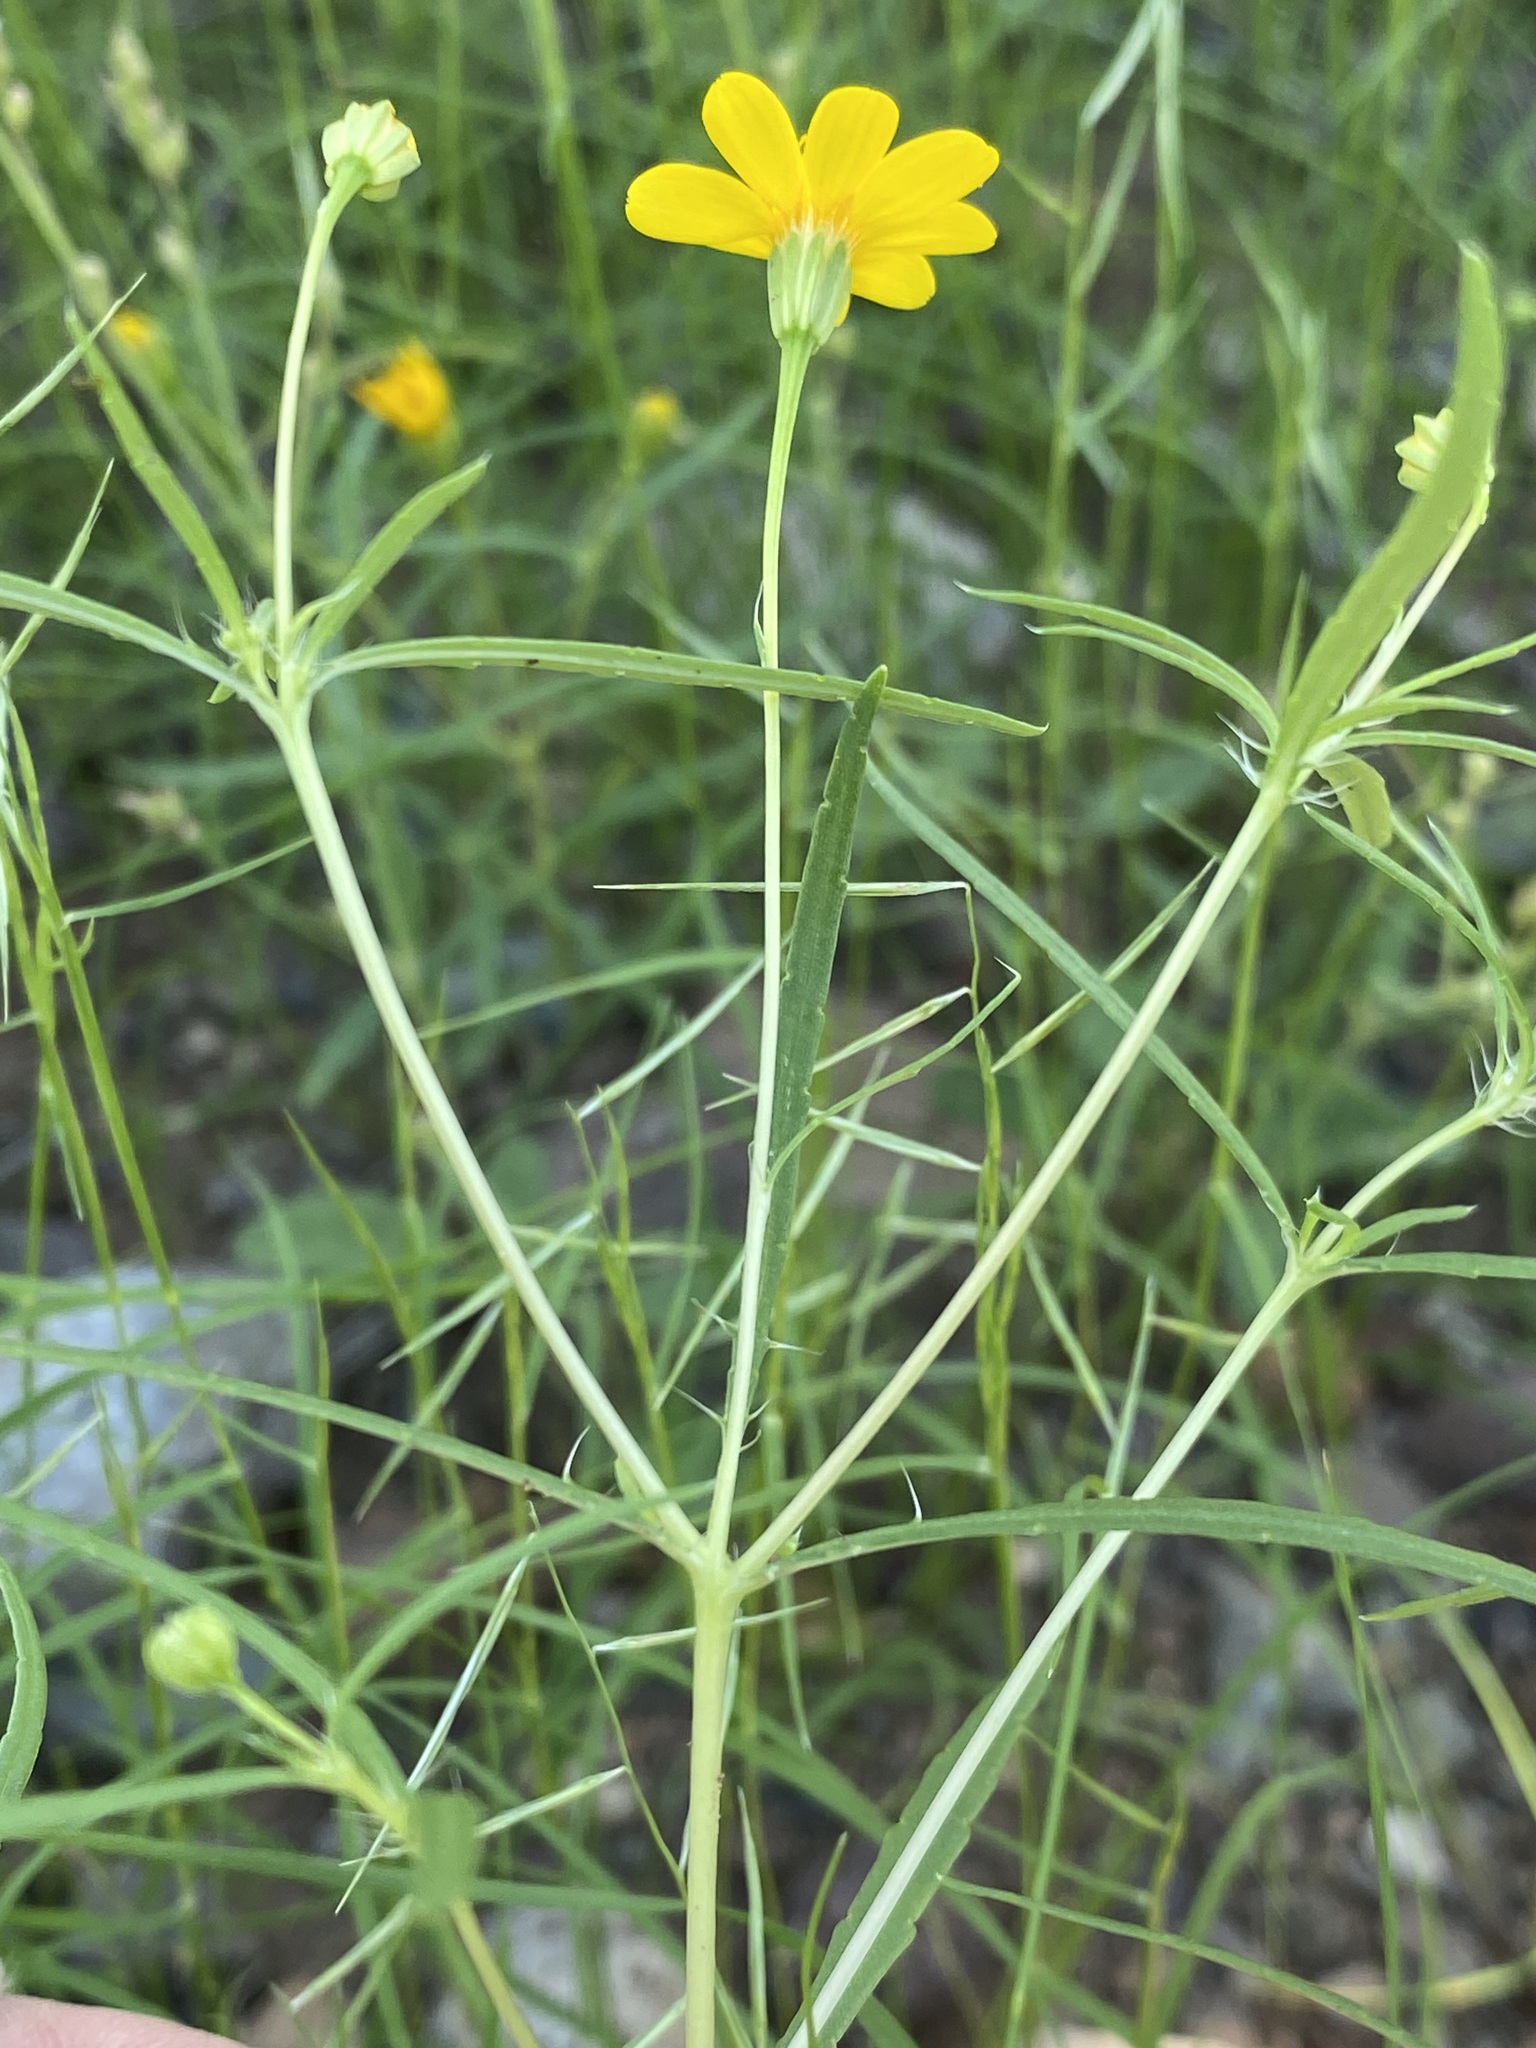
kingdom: Plantae
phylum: Tracheophyta
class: Magnoliopsida
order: Asterales
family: Asteraceae
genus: Pectis
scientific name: Pectis papposa
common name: Many-bristle chinchweed
